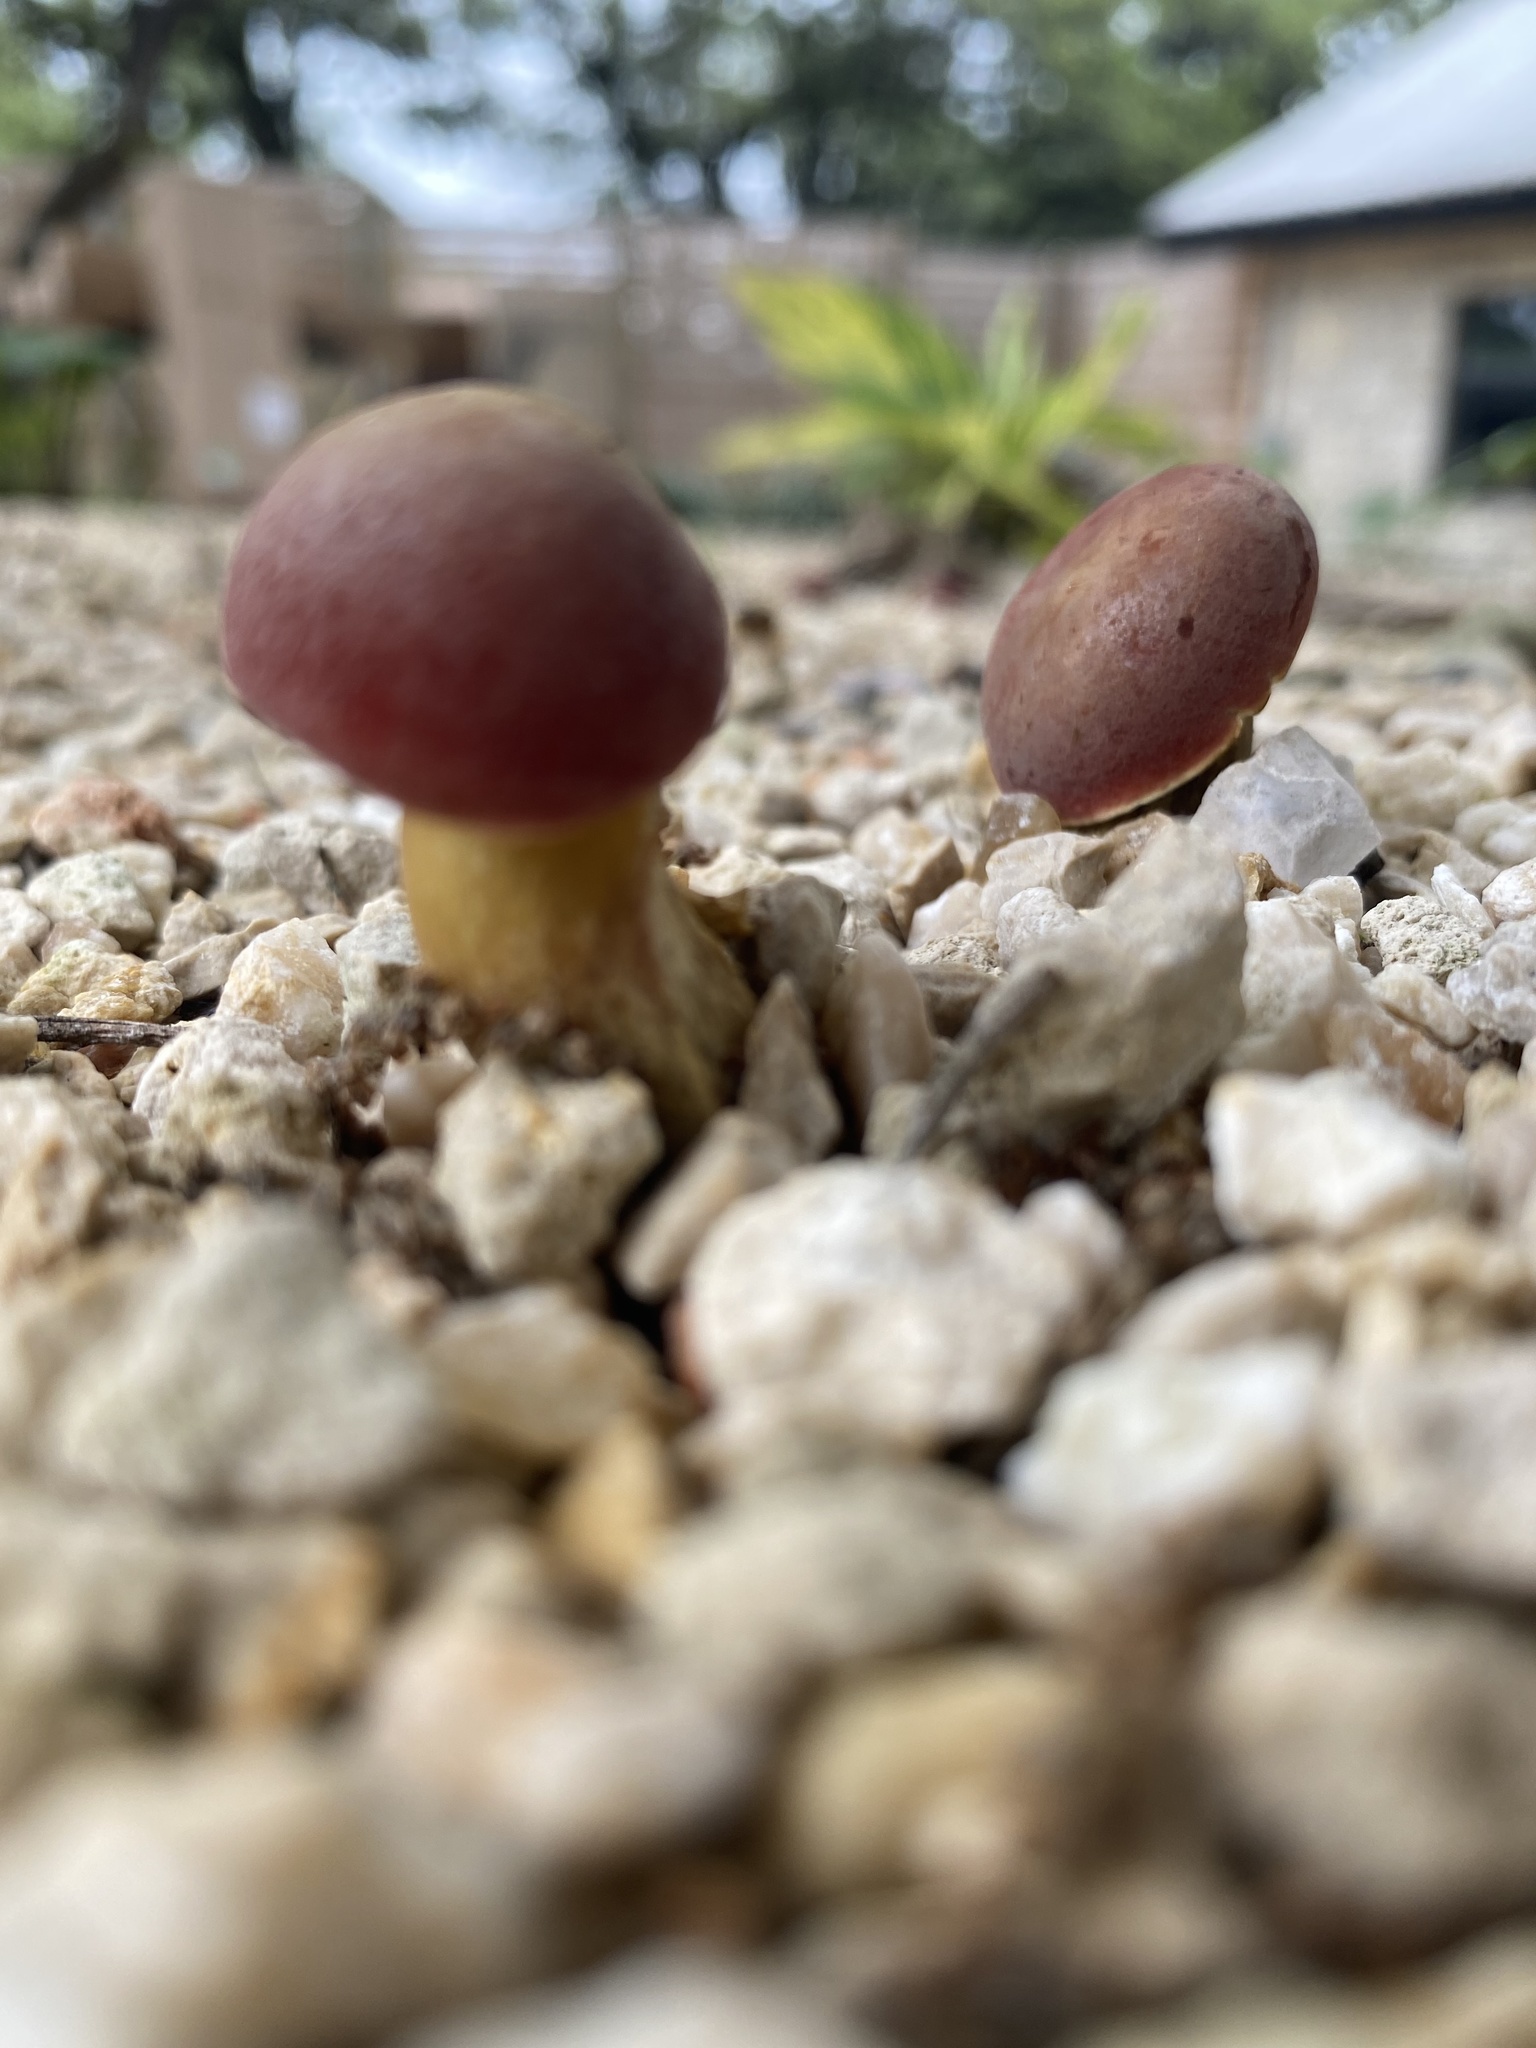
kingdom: Fungi
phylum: Basidiomycota
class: Agaricomycetes
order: Boletales
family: Boletaceae
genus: Hortiboletus
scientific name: Hortiboletus rubellus
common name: Ruby bolete
